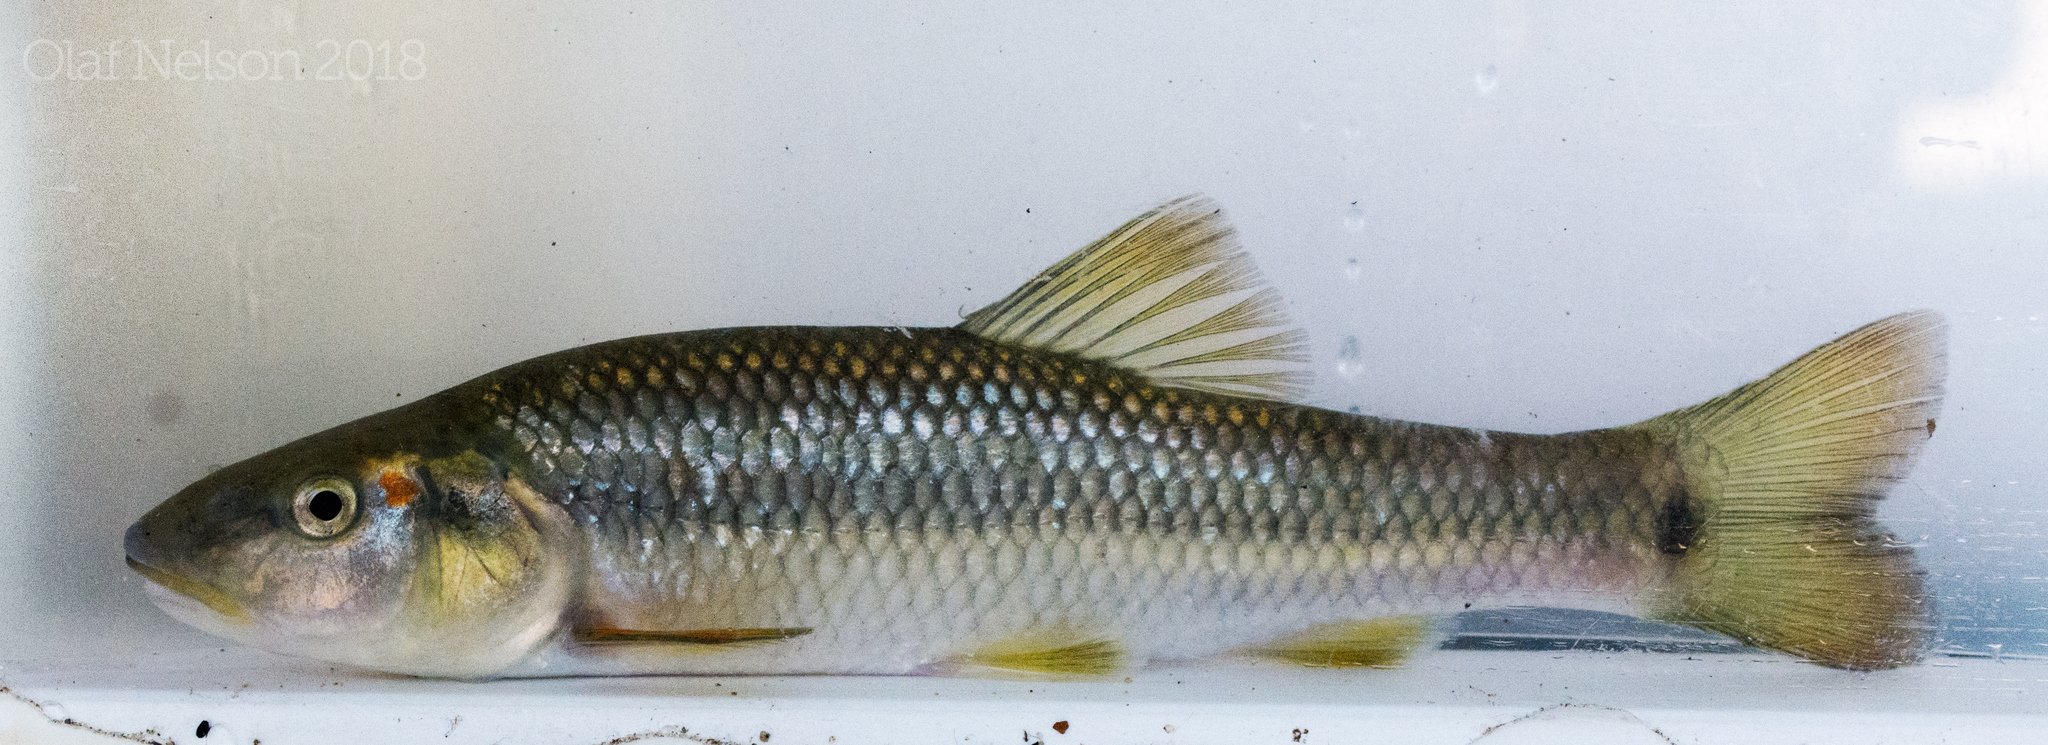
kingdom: Animalia
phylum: Chordata
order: Cypriniformes
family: Cyprinidae
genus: Nocomis
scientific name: Nocomis biguttatus
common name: Hornyhead chub
